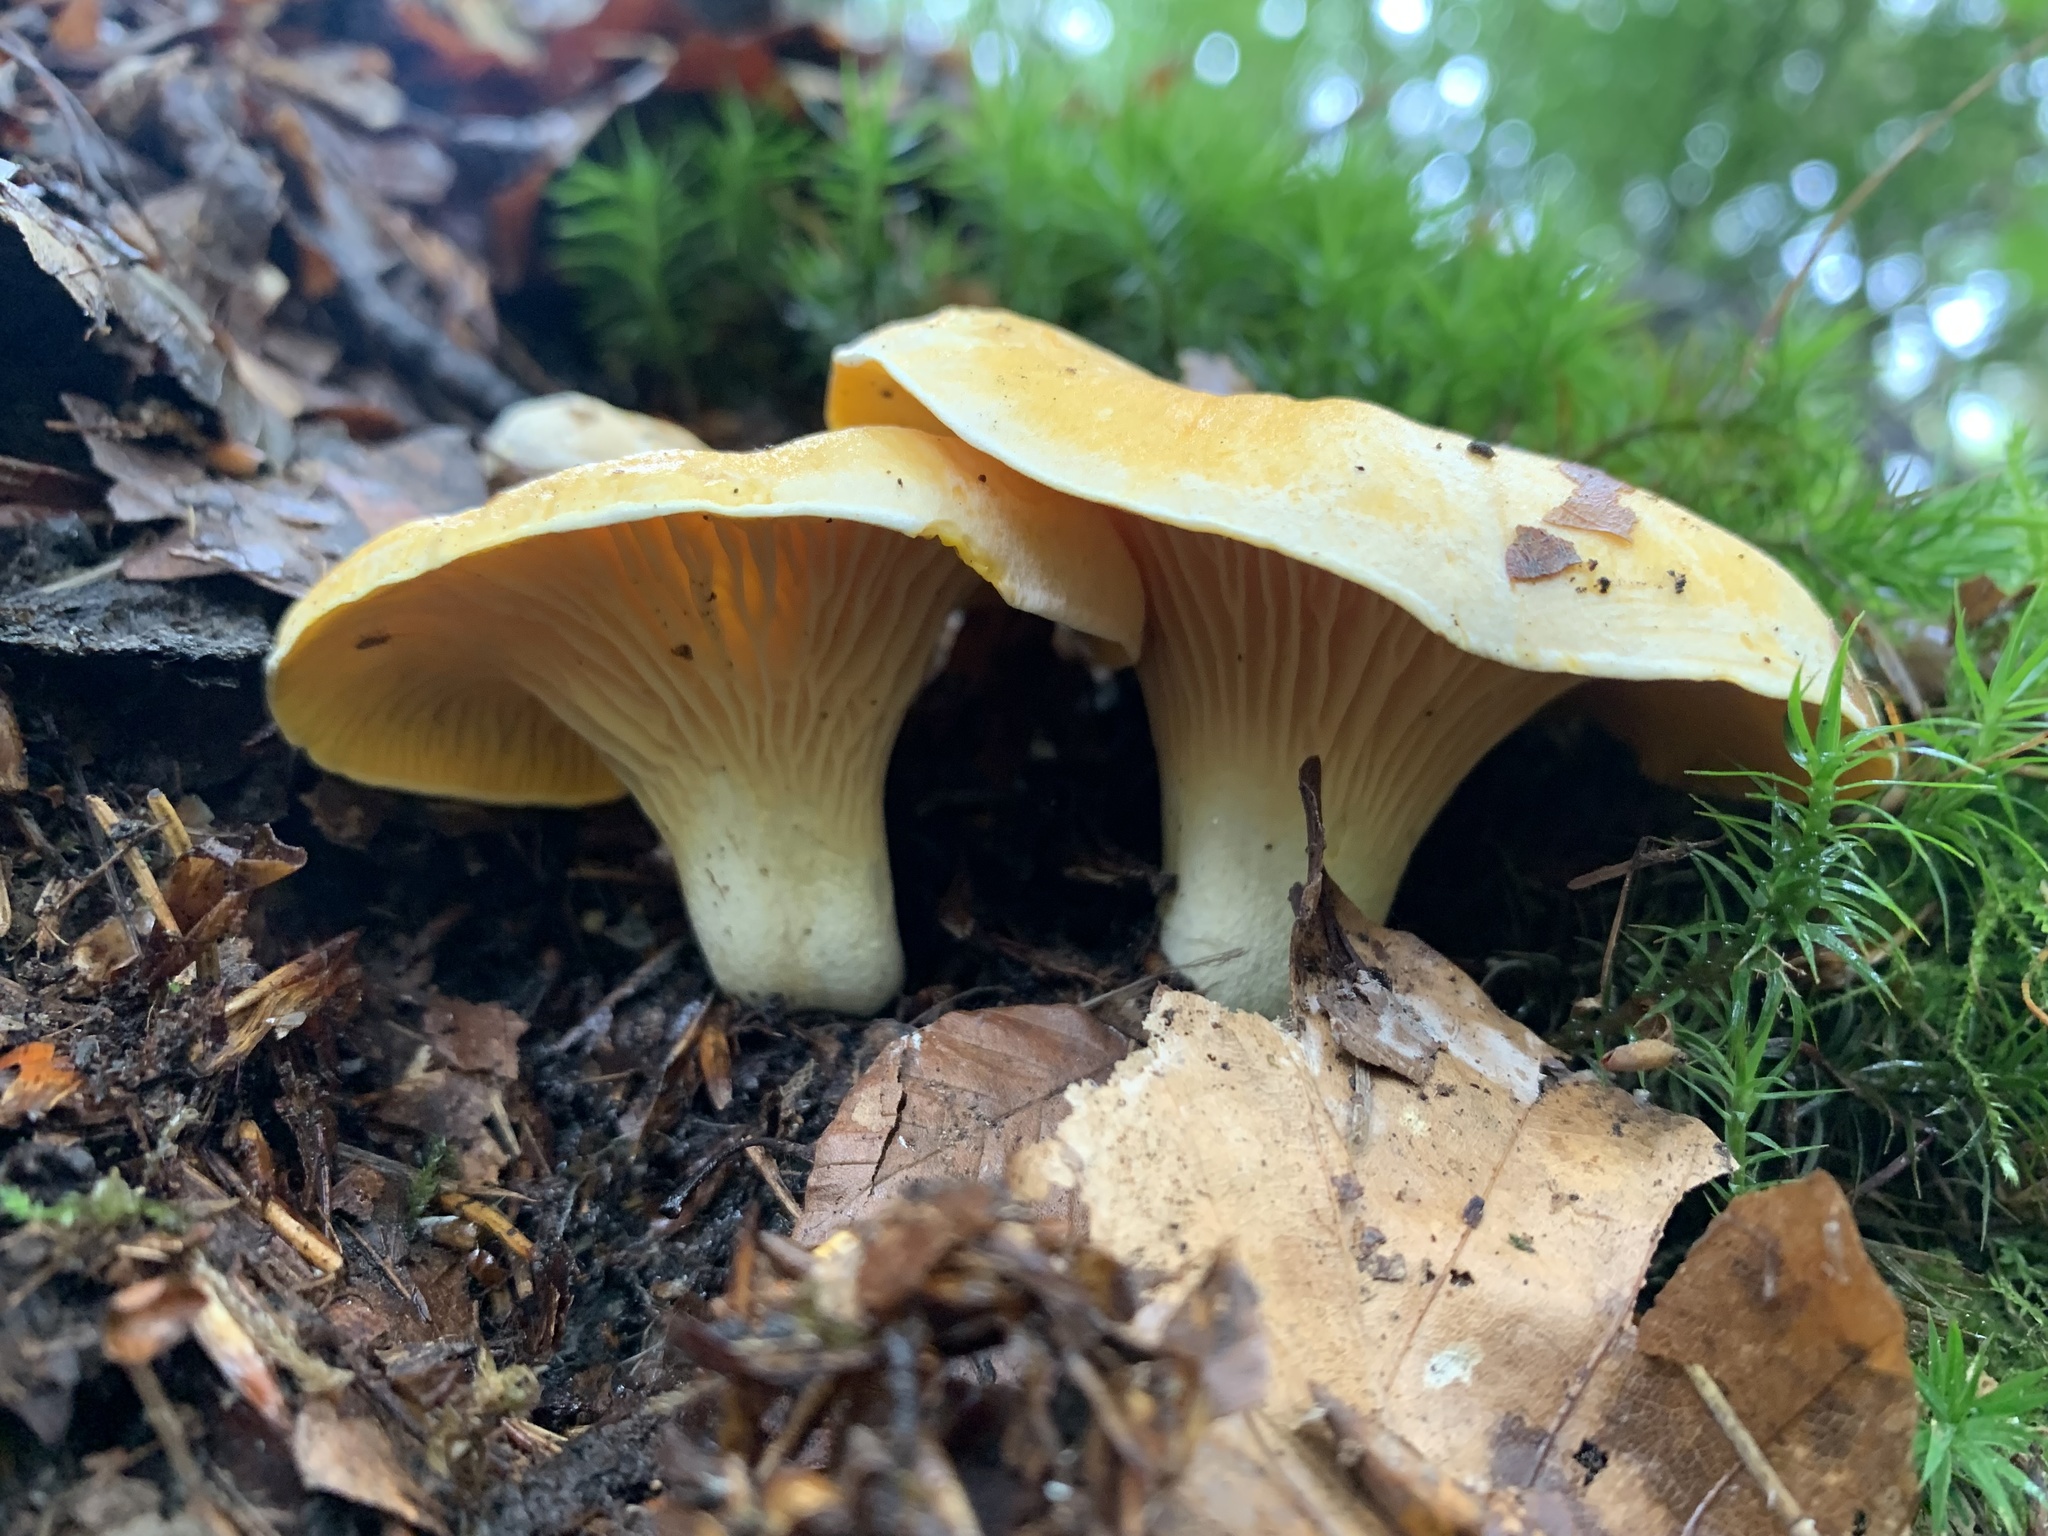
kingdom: Fungi
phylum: Basidiomycota
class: Agaricomycetes
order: Boletales
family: Hygrophoropsidaceae
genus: Hygrophoropsis
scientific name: Hygrophoropsis aurantiaca
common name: False chanterelle
